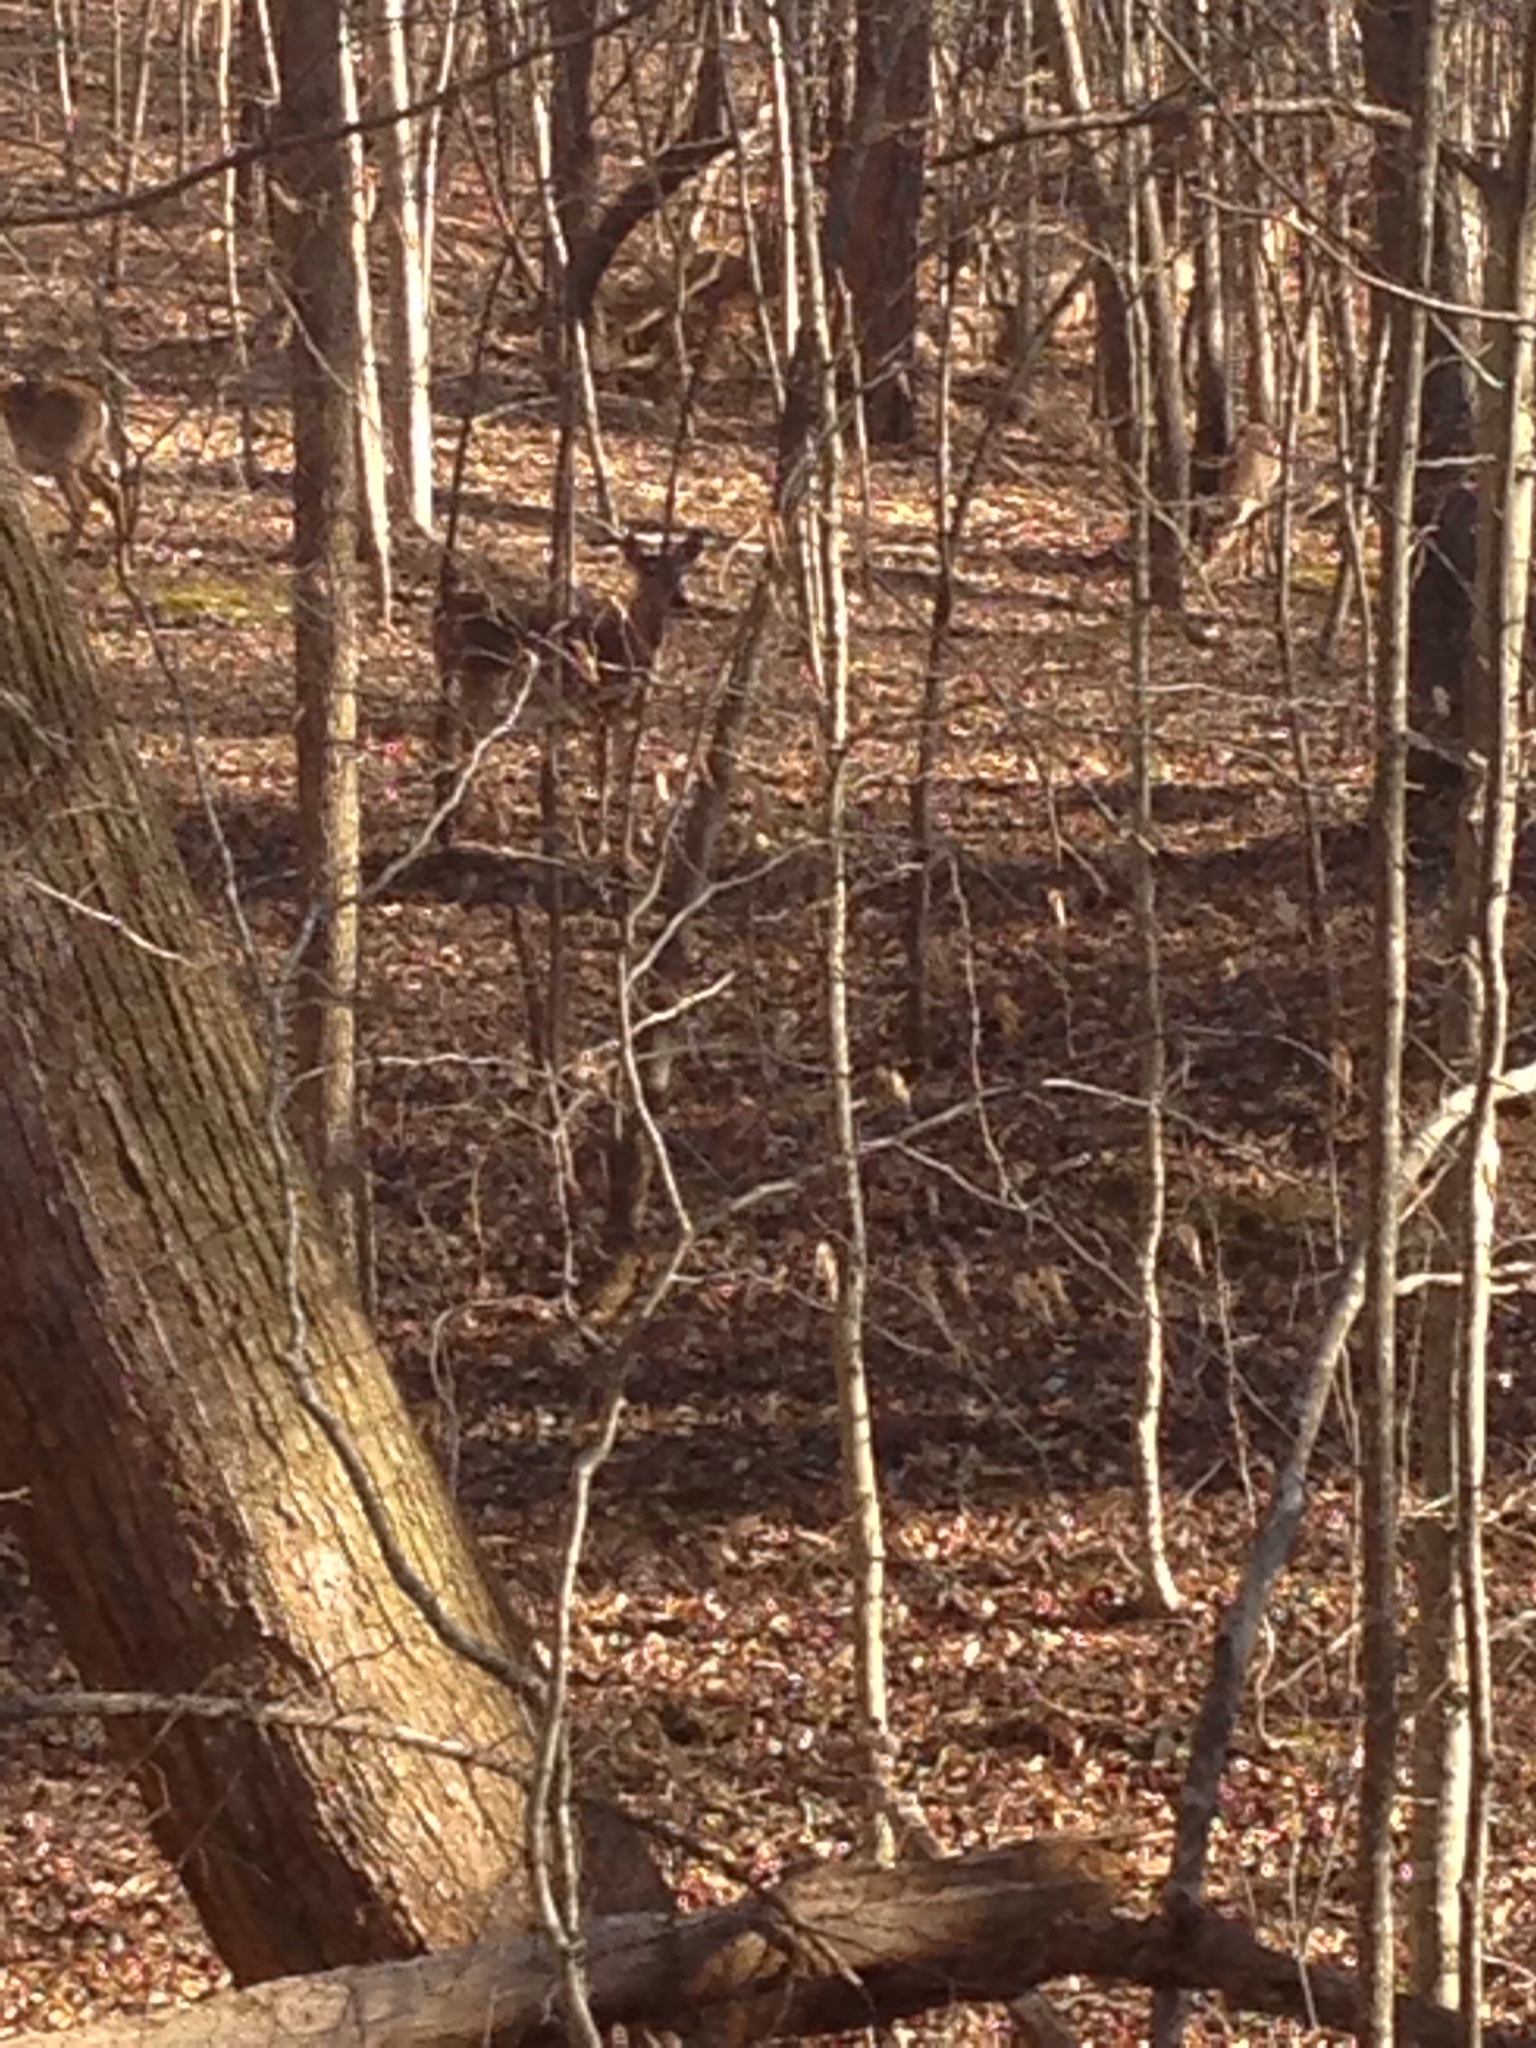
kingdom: Animalia
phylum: Chordata
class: Mammalia
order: Artiodactyla
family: Cervidae
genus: Odocoileus
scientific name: Odocoileus virginianus
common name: White-tailed deer
